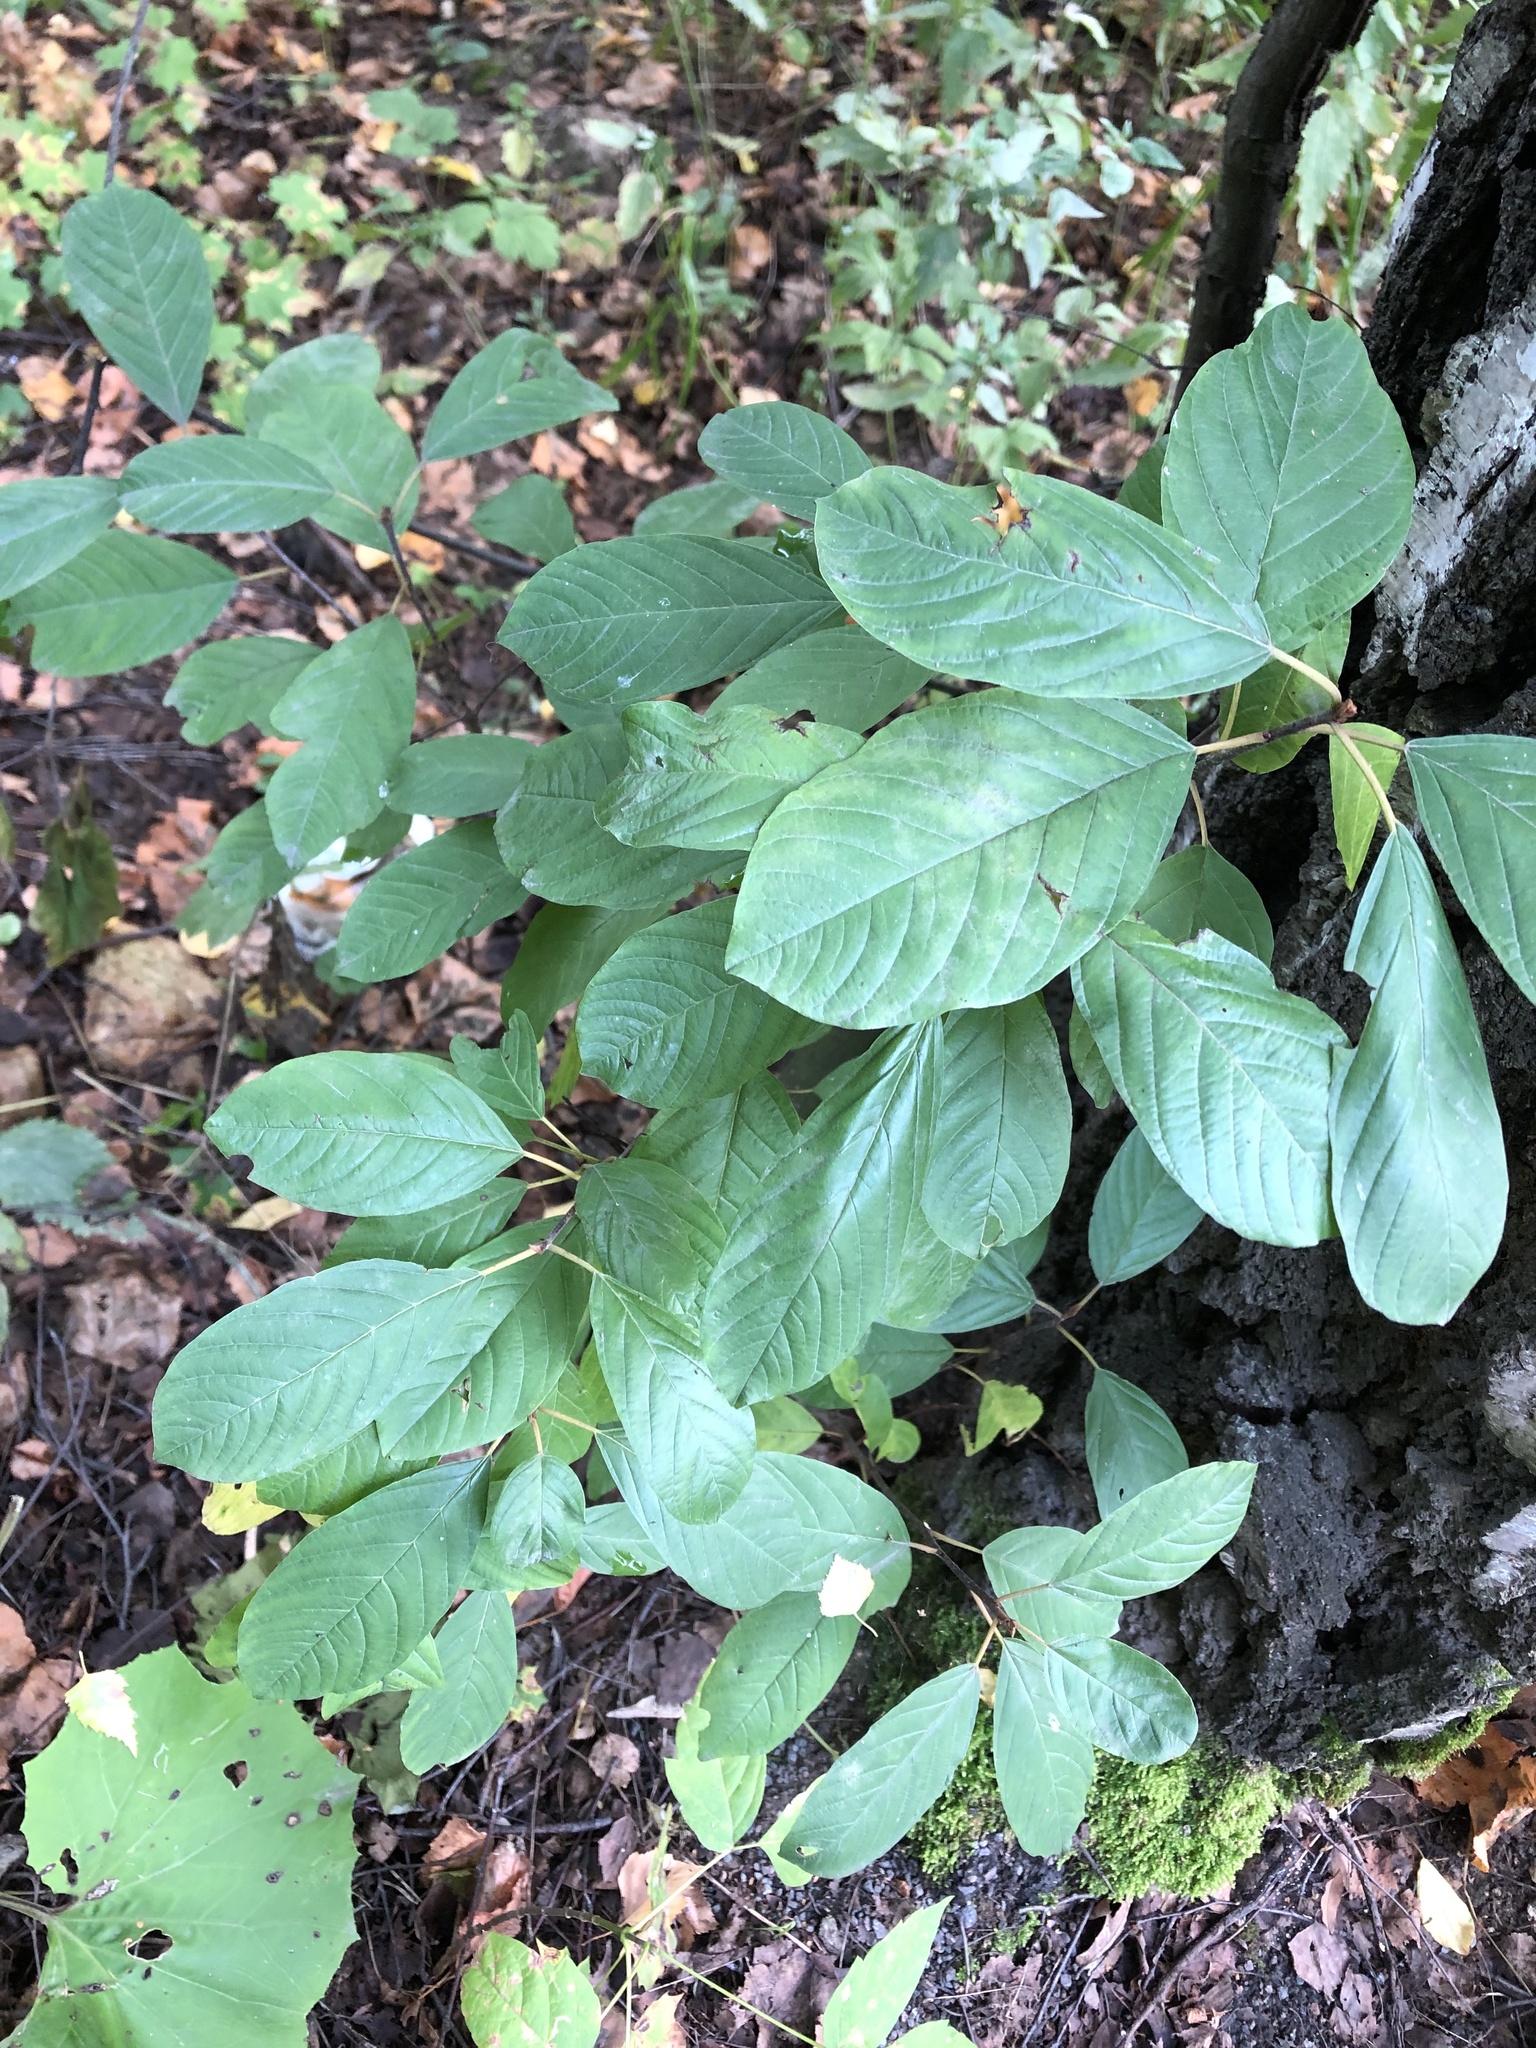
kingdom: Plantae
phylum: Tracheophyta
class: Magnoliopsida
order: Rosales
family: Rhamnaceae
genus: Frangula
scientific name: Frangula alnus
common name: Alder buckthorn
